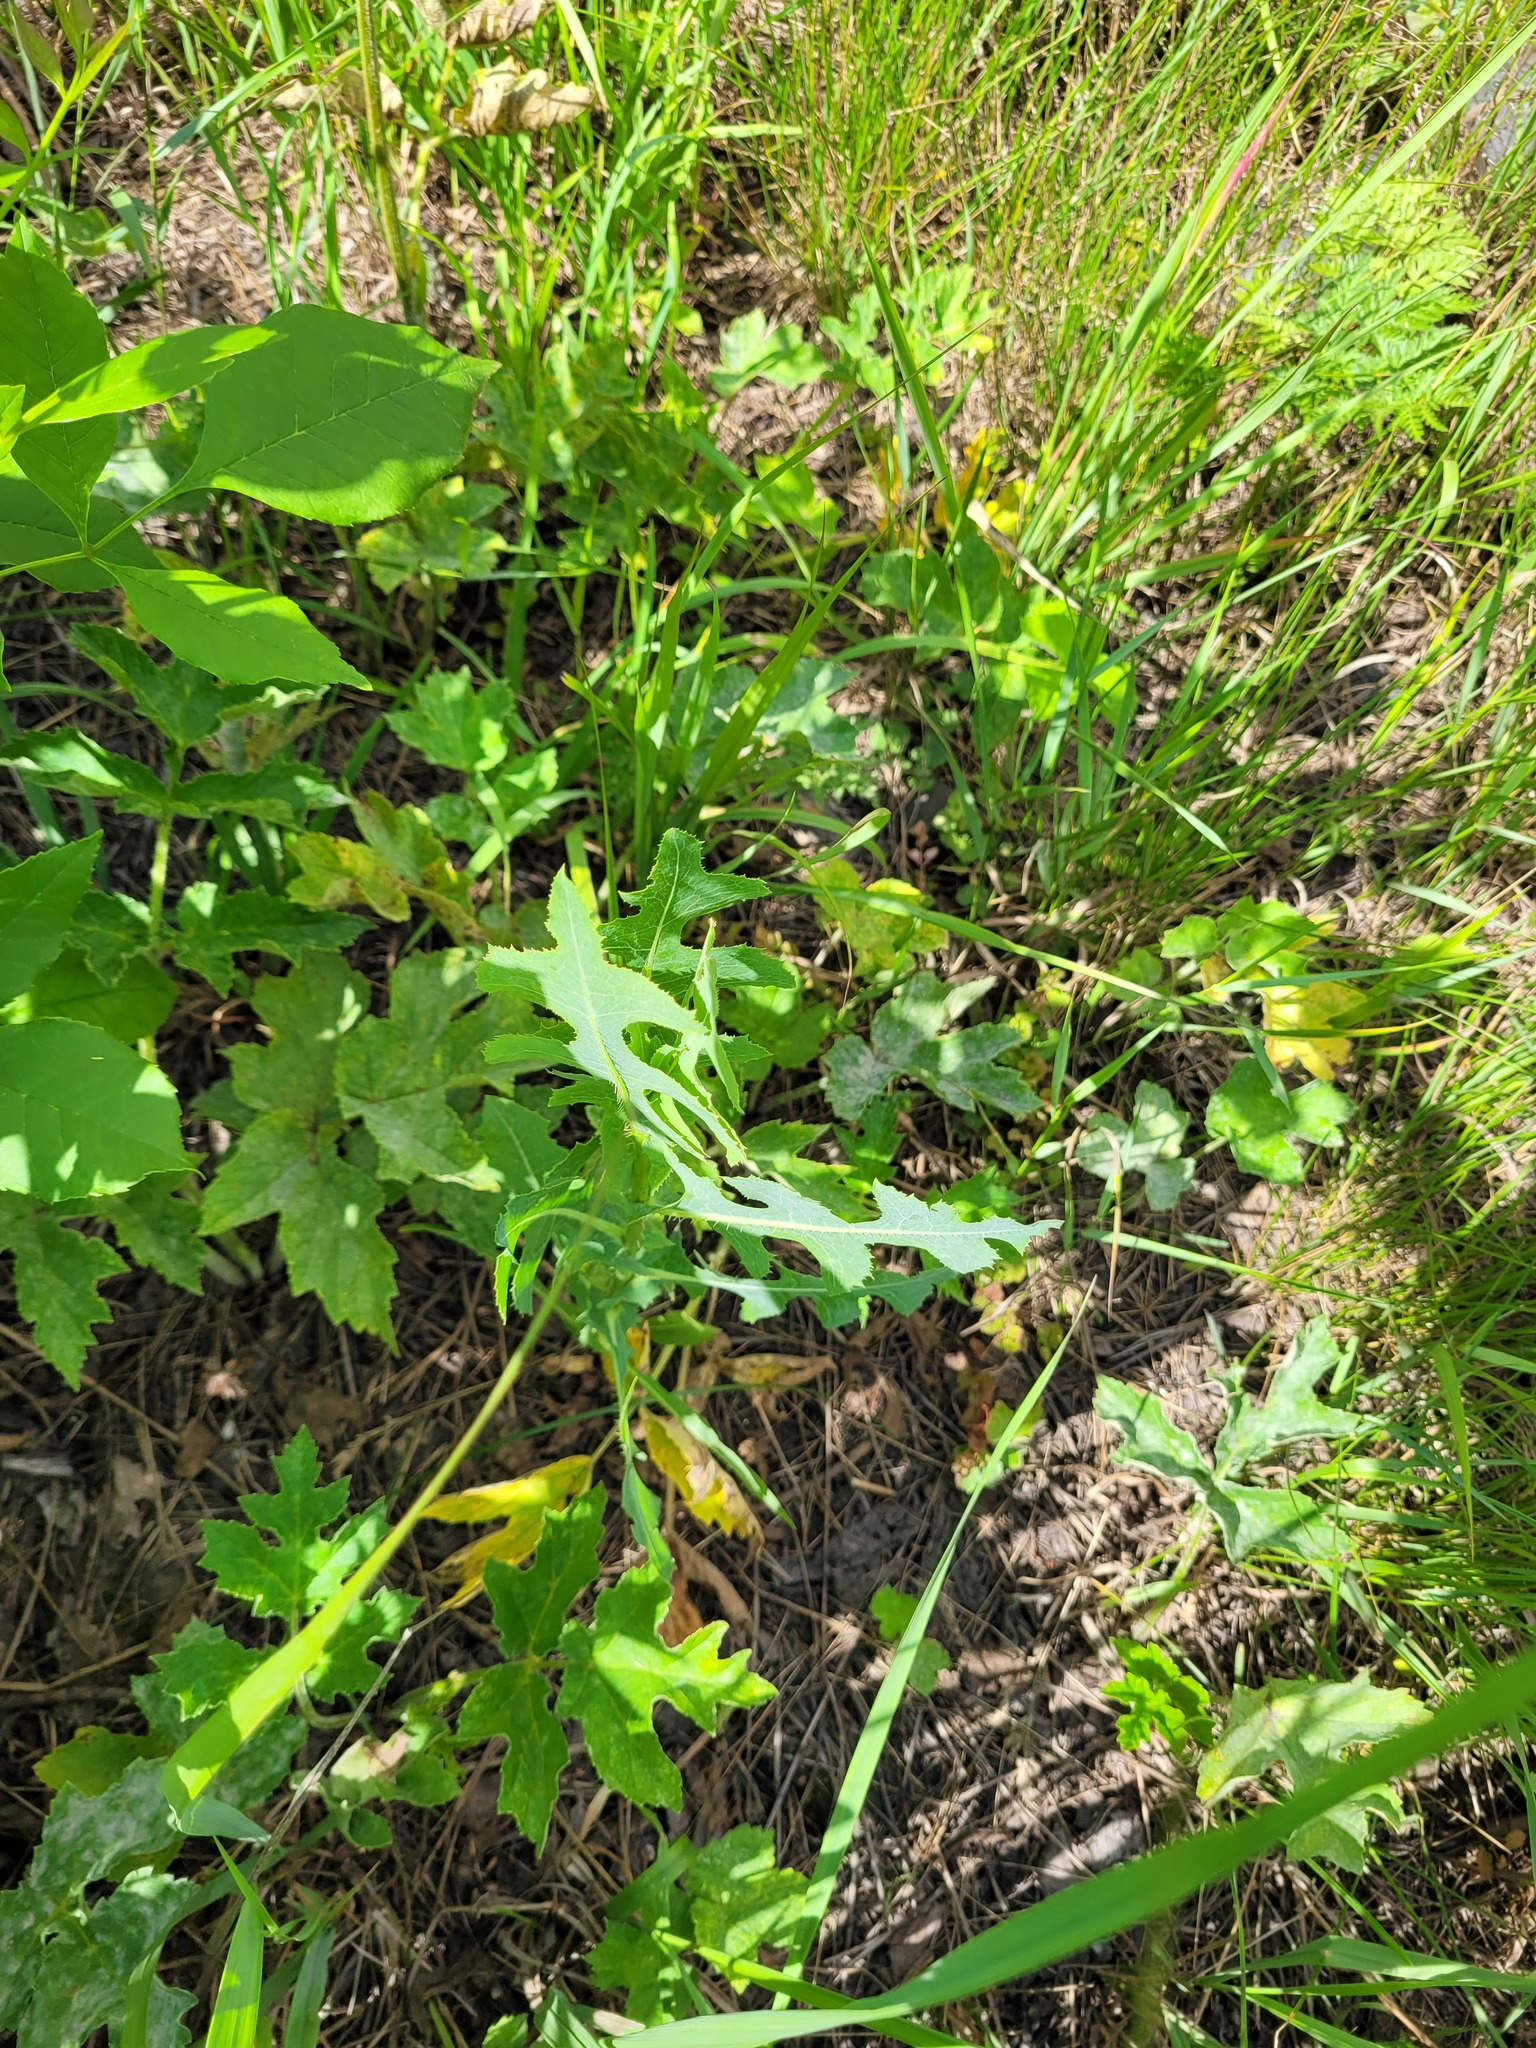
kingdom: Plantae
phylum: Tracheophyta
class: Magnoliopsida
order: Asterales
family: Asteraceae
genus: Lactuca
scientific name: Lactuca serriola
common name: Prickly lettuce
